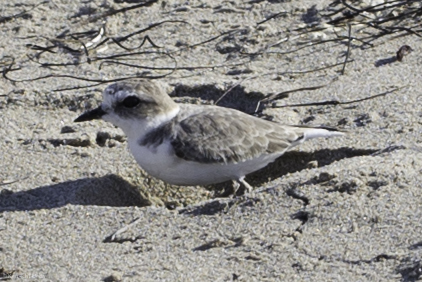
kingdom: Animalia
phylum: Chordata
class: Aves
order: Charadriiformes
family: Charadriidae
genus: Anarhynchus
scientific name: Anarhynchus
